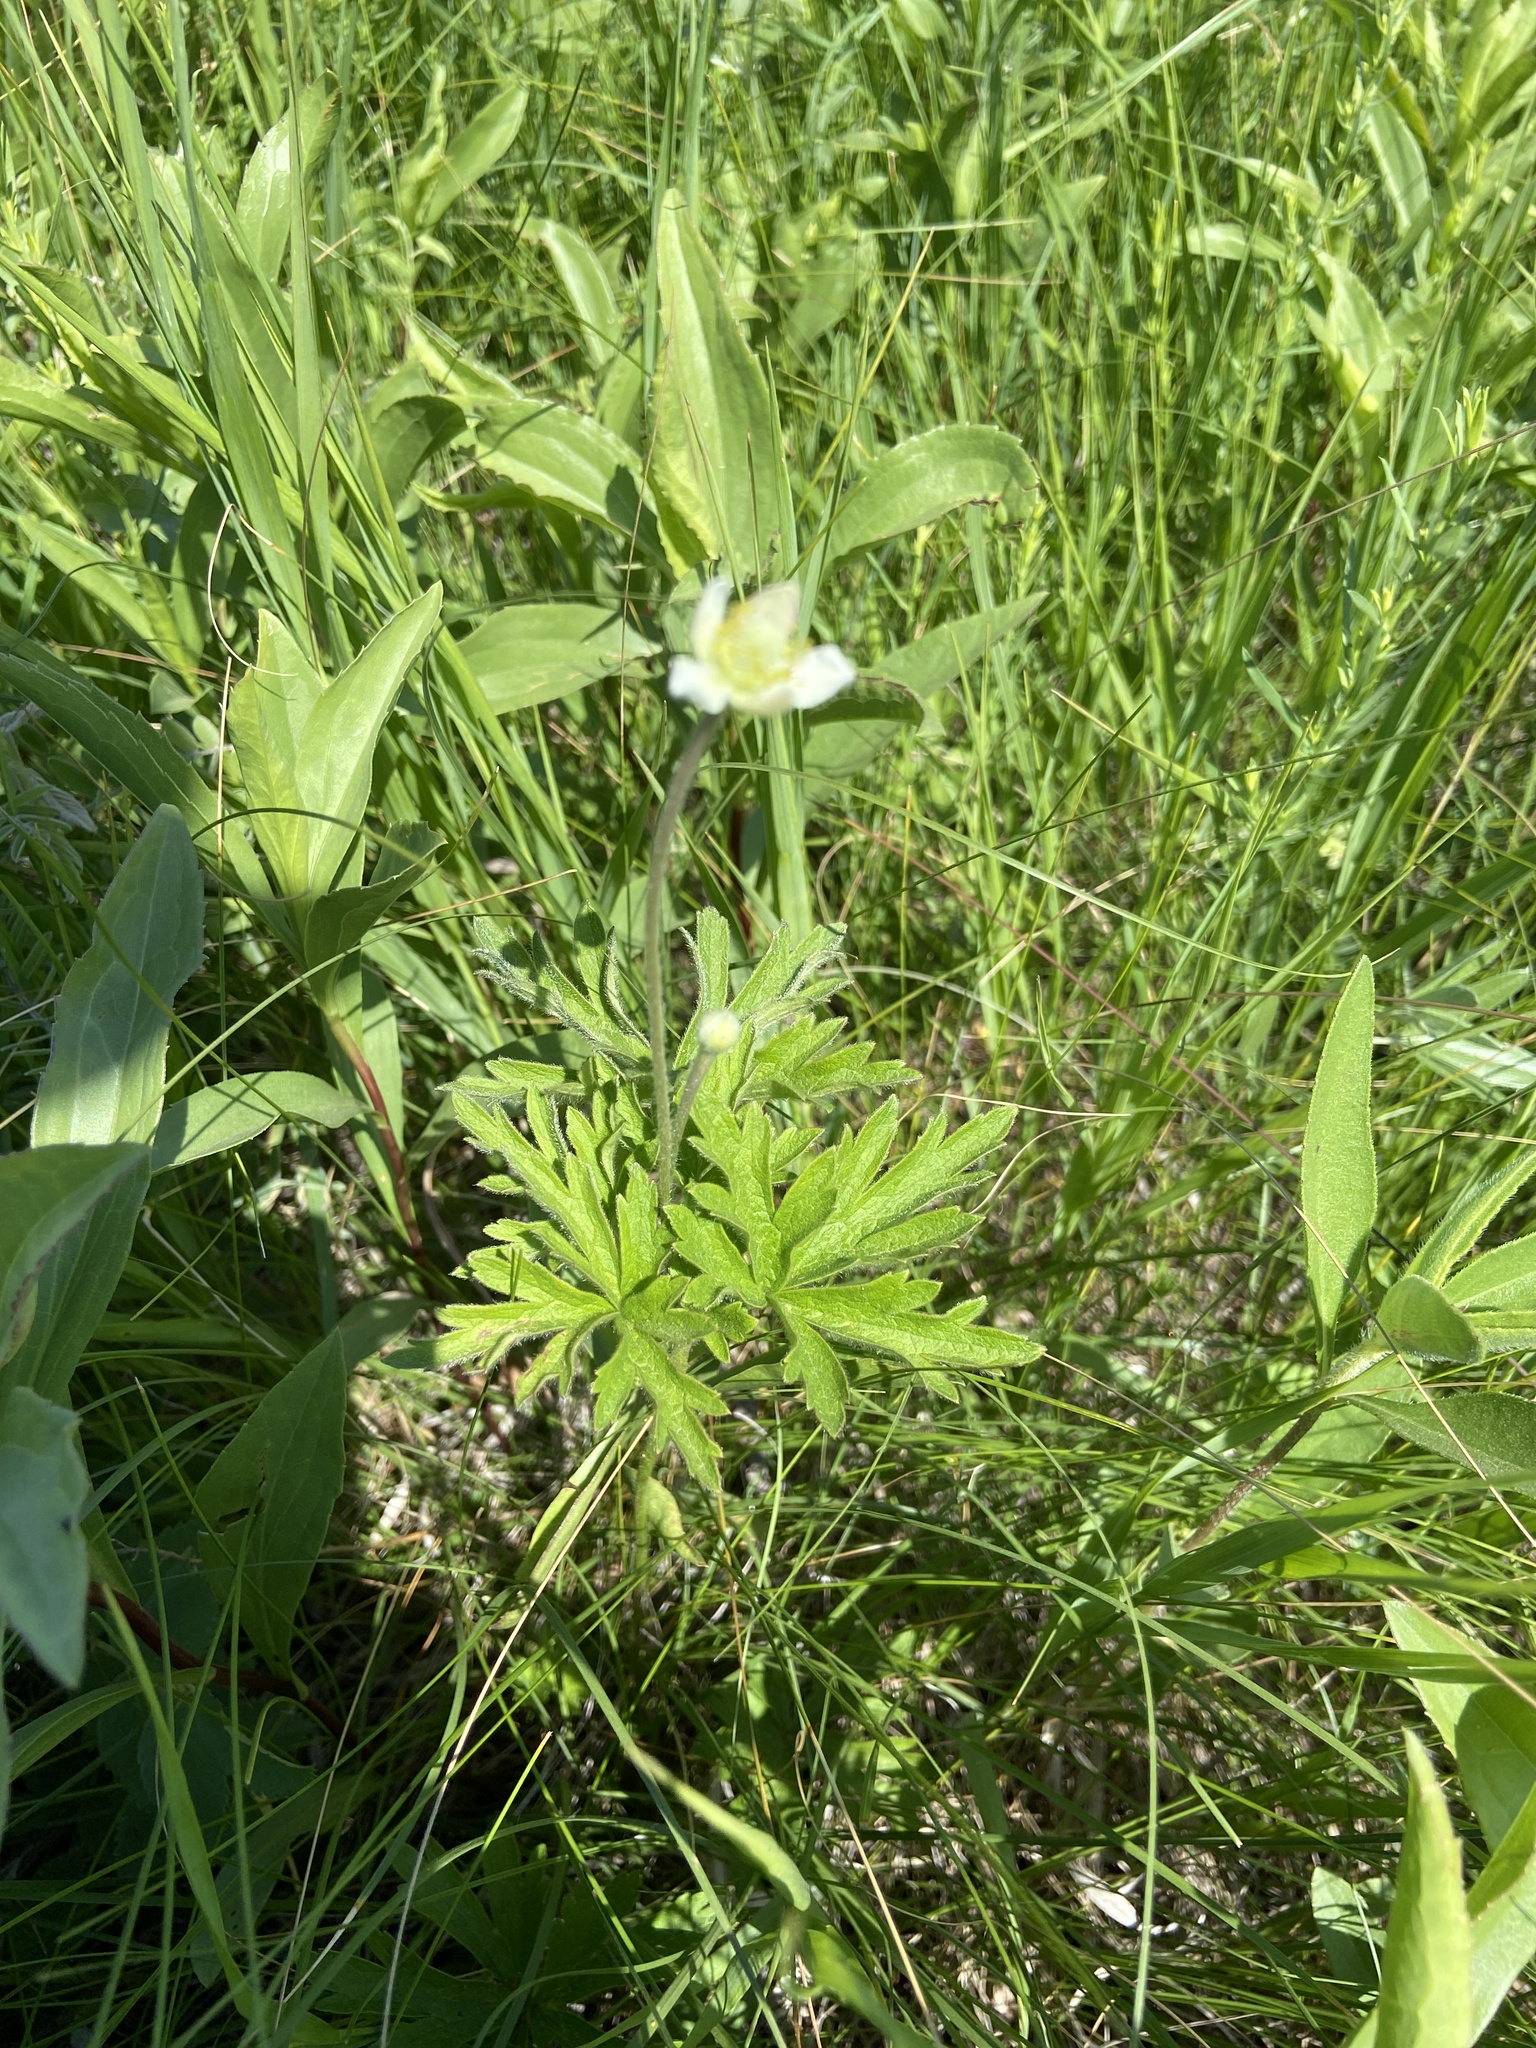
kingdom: Plantae
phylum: Tracheophyta
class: Magnoliopsida
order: Ranunculales
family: Ranunculaceae
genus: Anemone
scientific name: Anemone cylindrica
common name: Candle anemone
